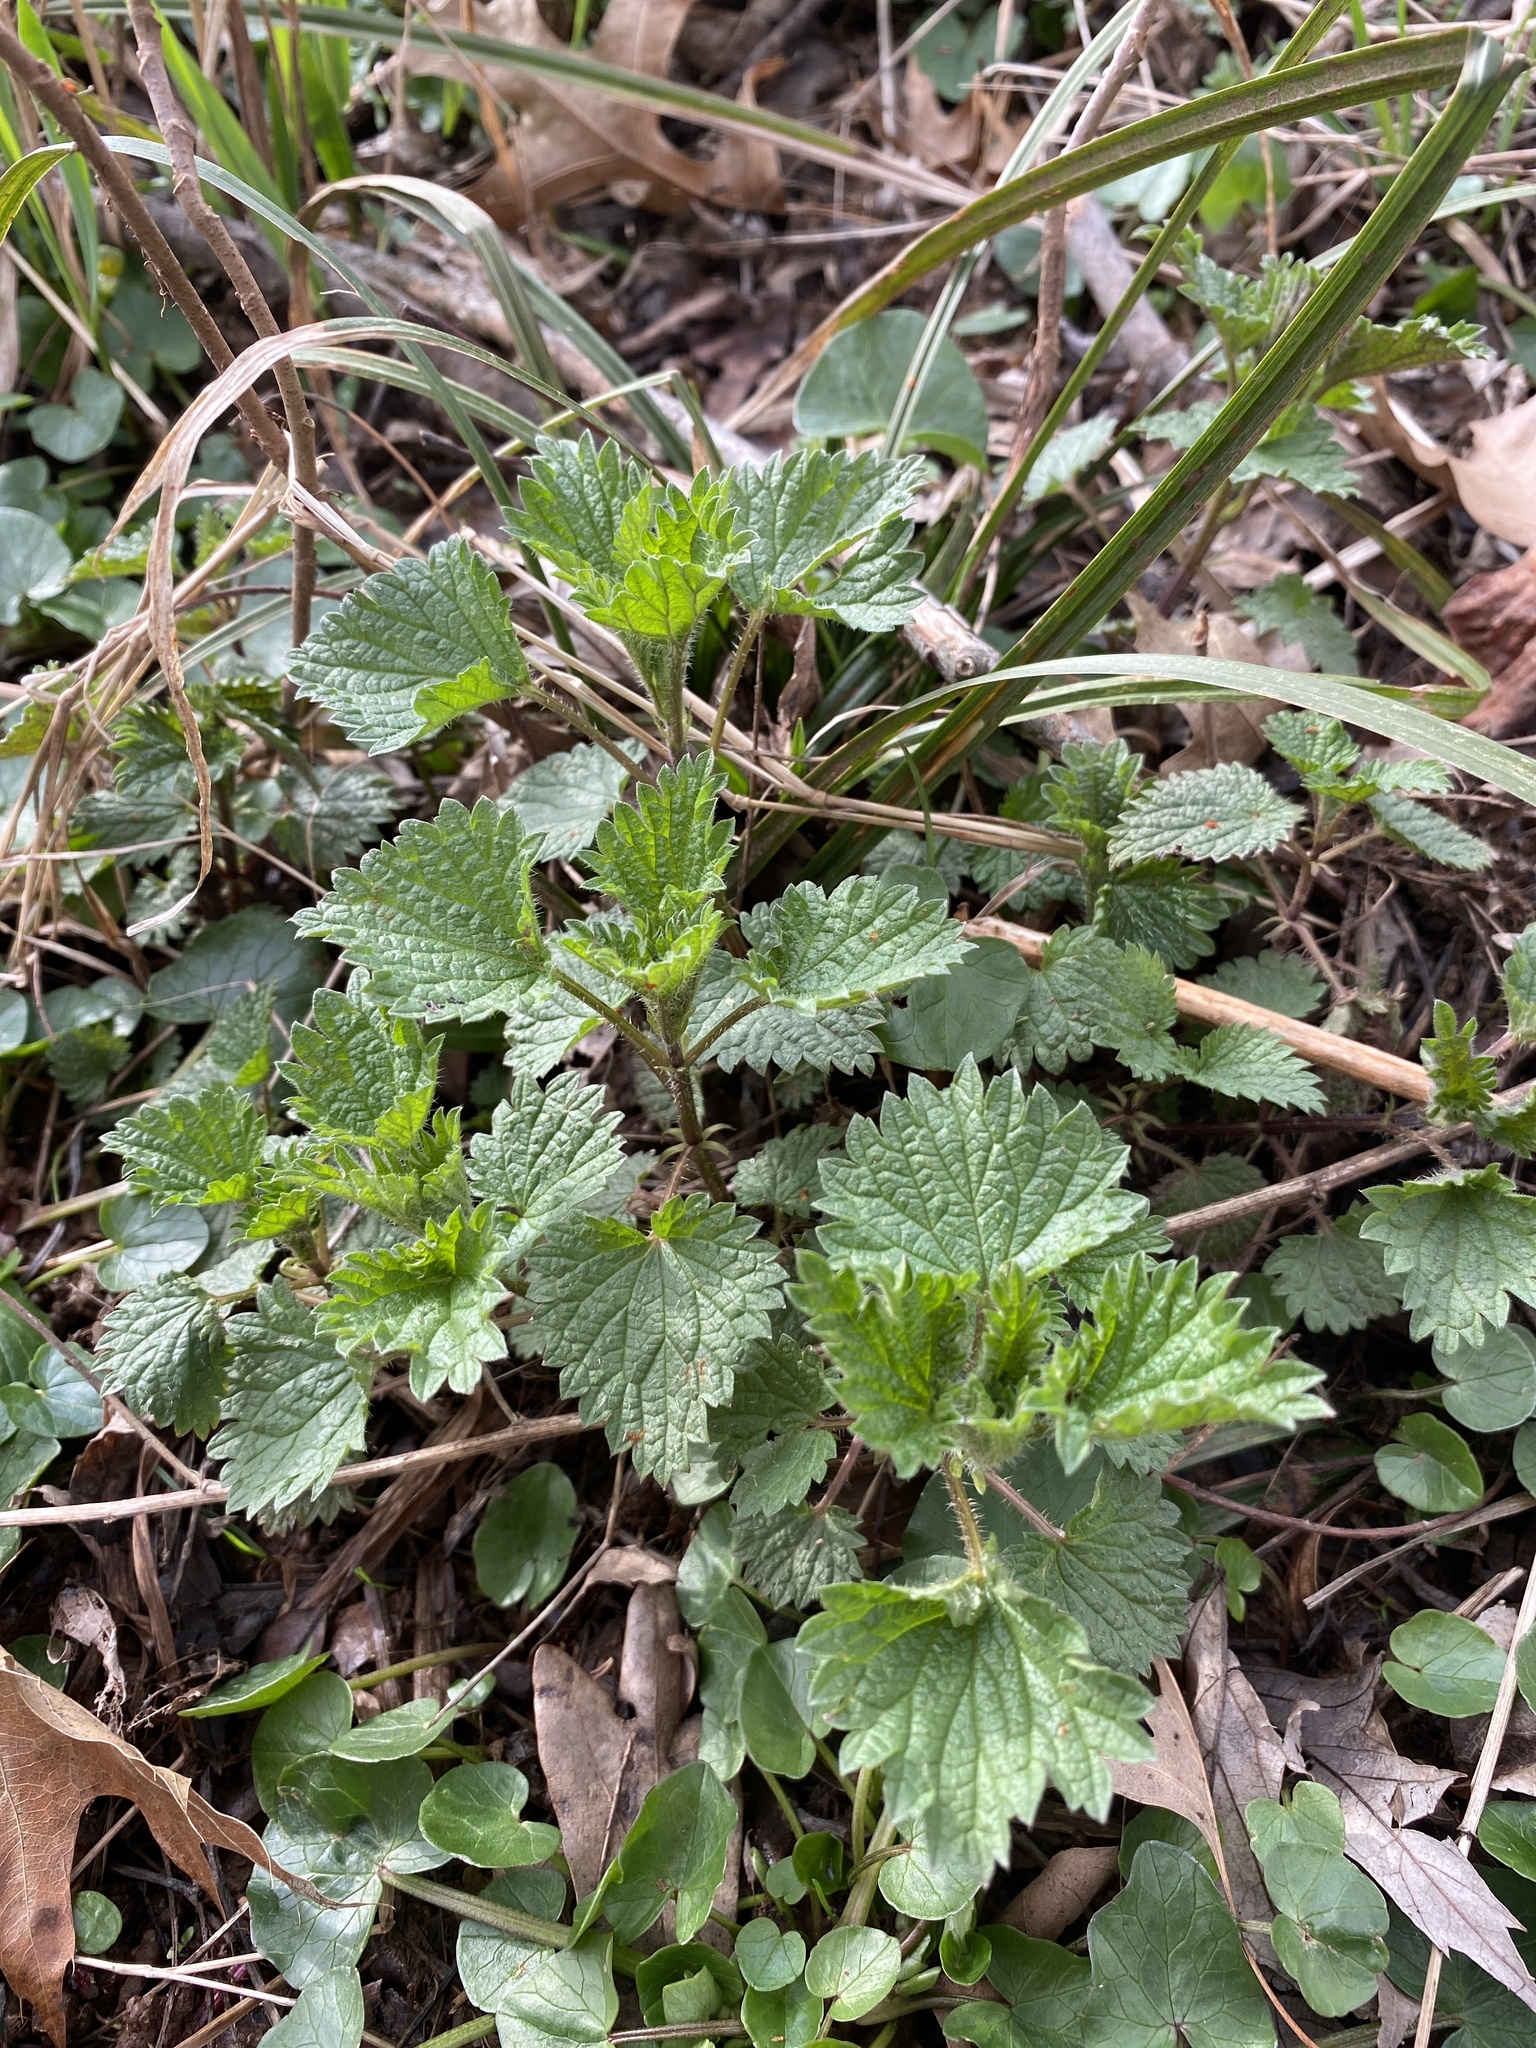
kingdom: Plantae
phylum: Tracheophyta
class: Magnoliopsida
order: Rosales
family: Urticaceae
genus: Urtica
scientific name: Urtica dioica
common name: Common nettle
